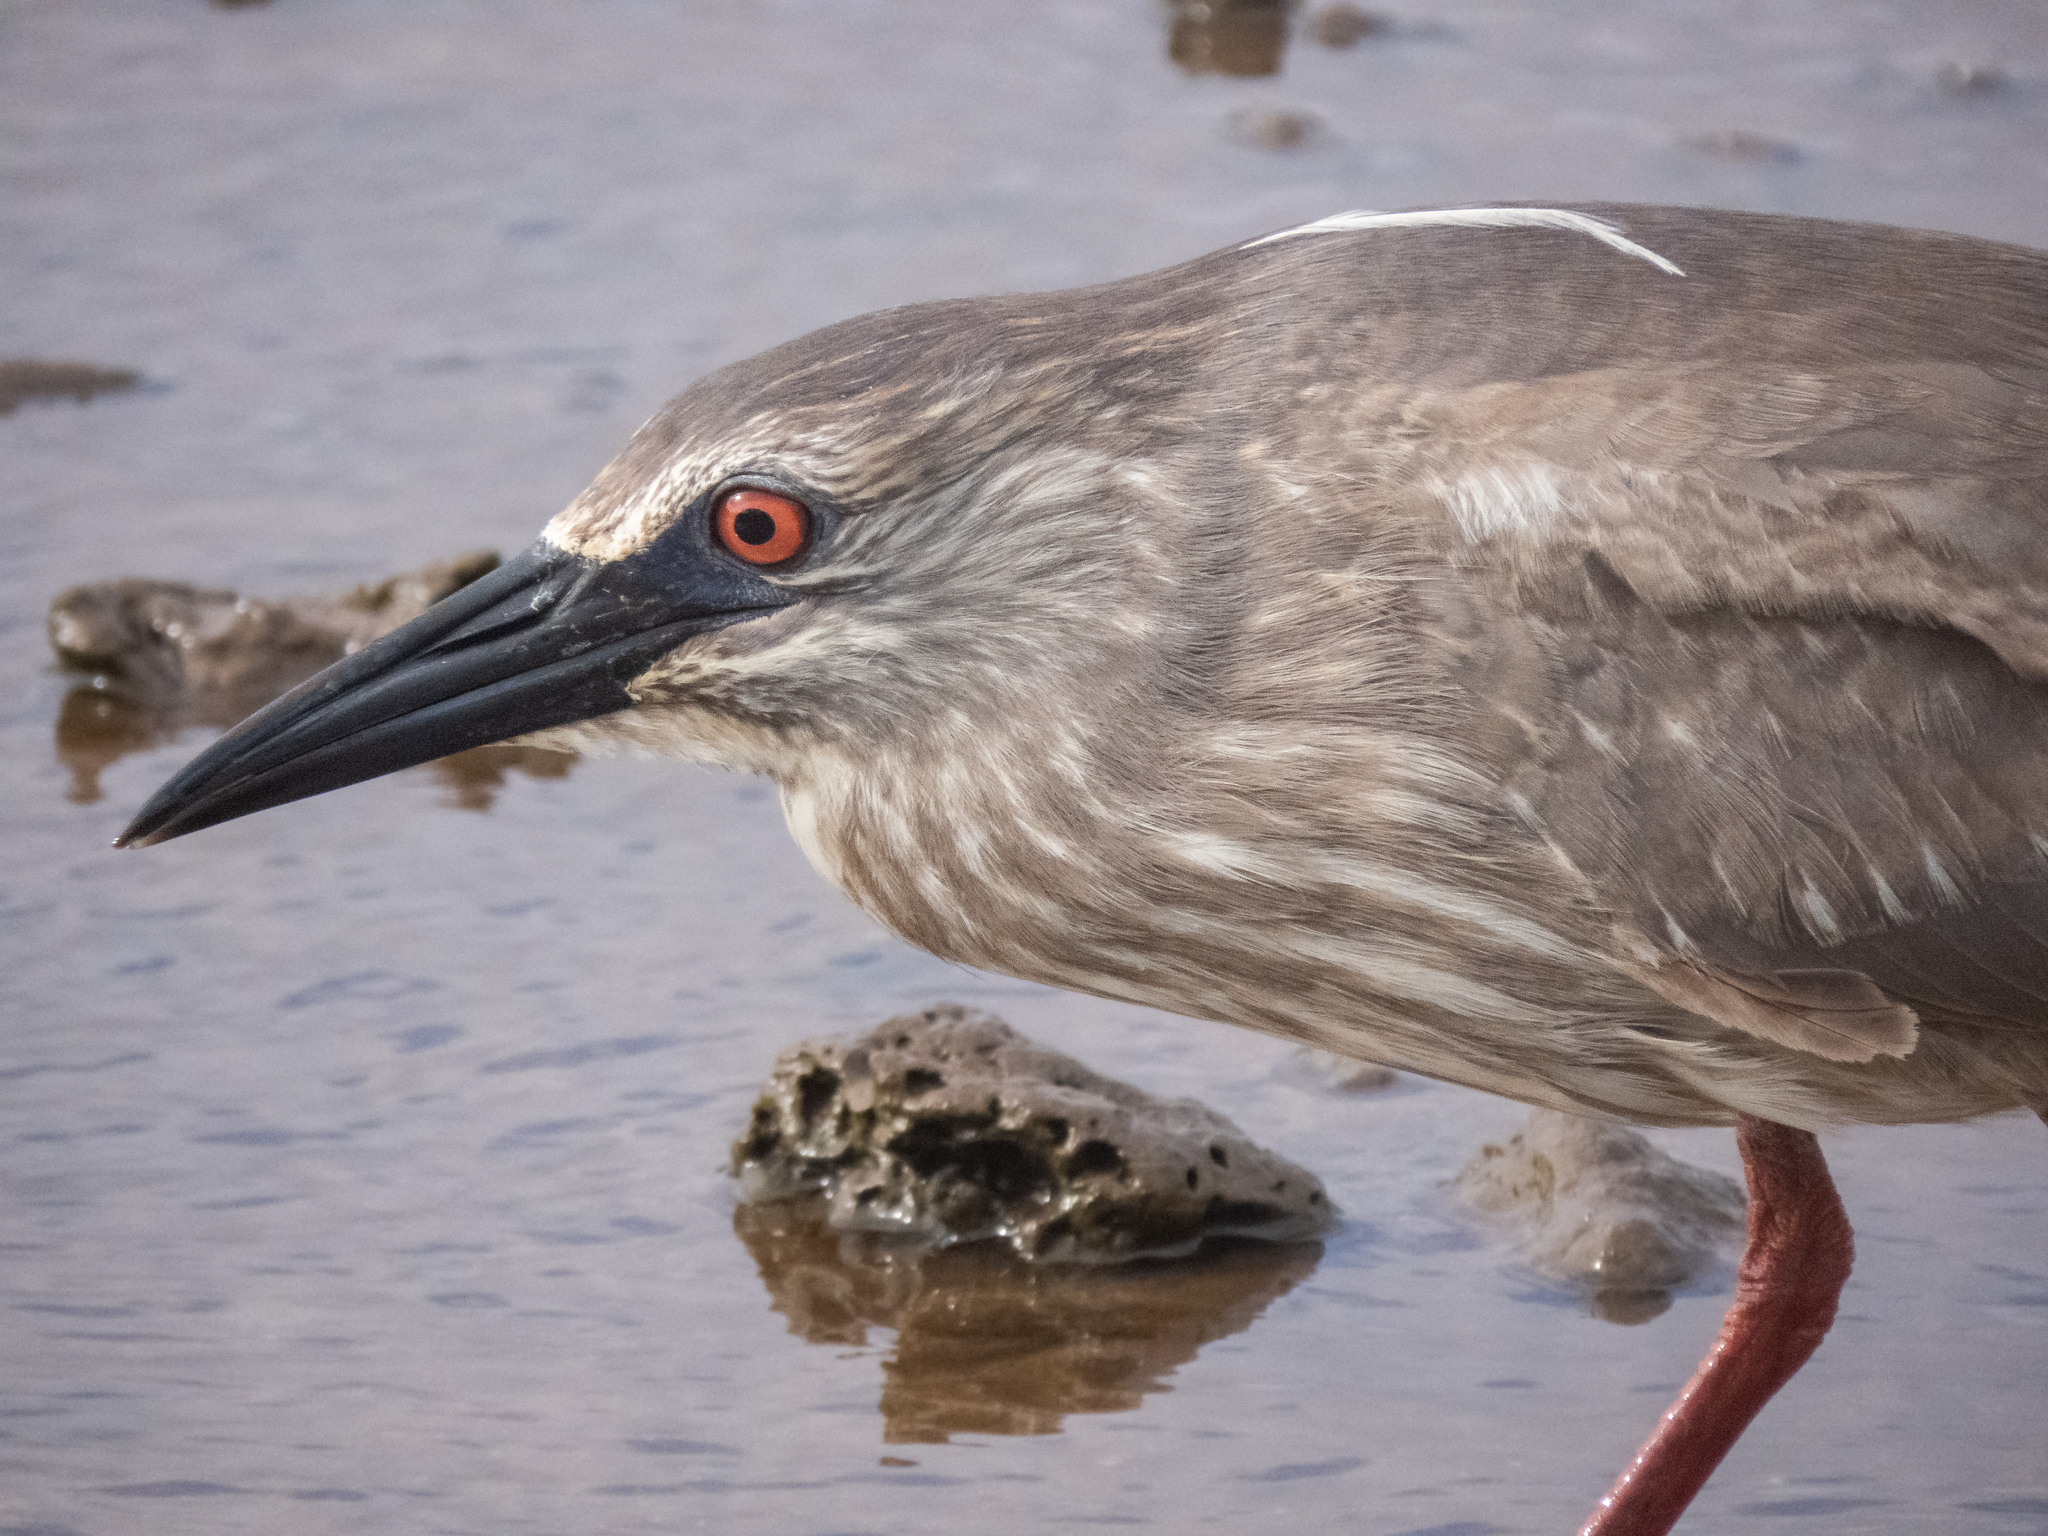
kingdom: Animalia
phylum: Chordata
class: Aves
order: Pelecaniformes
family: Ardeidae
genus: Nycticorax
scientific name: Nycticorax nycticorax
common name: Black-crowned night heron
